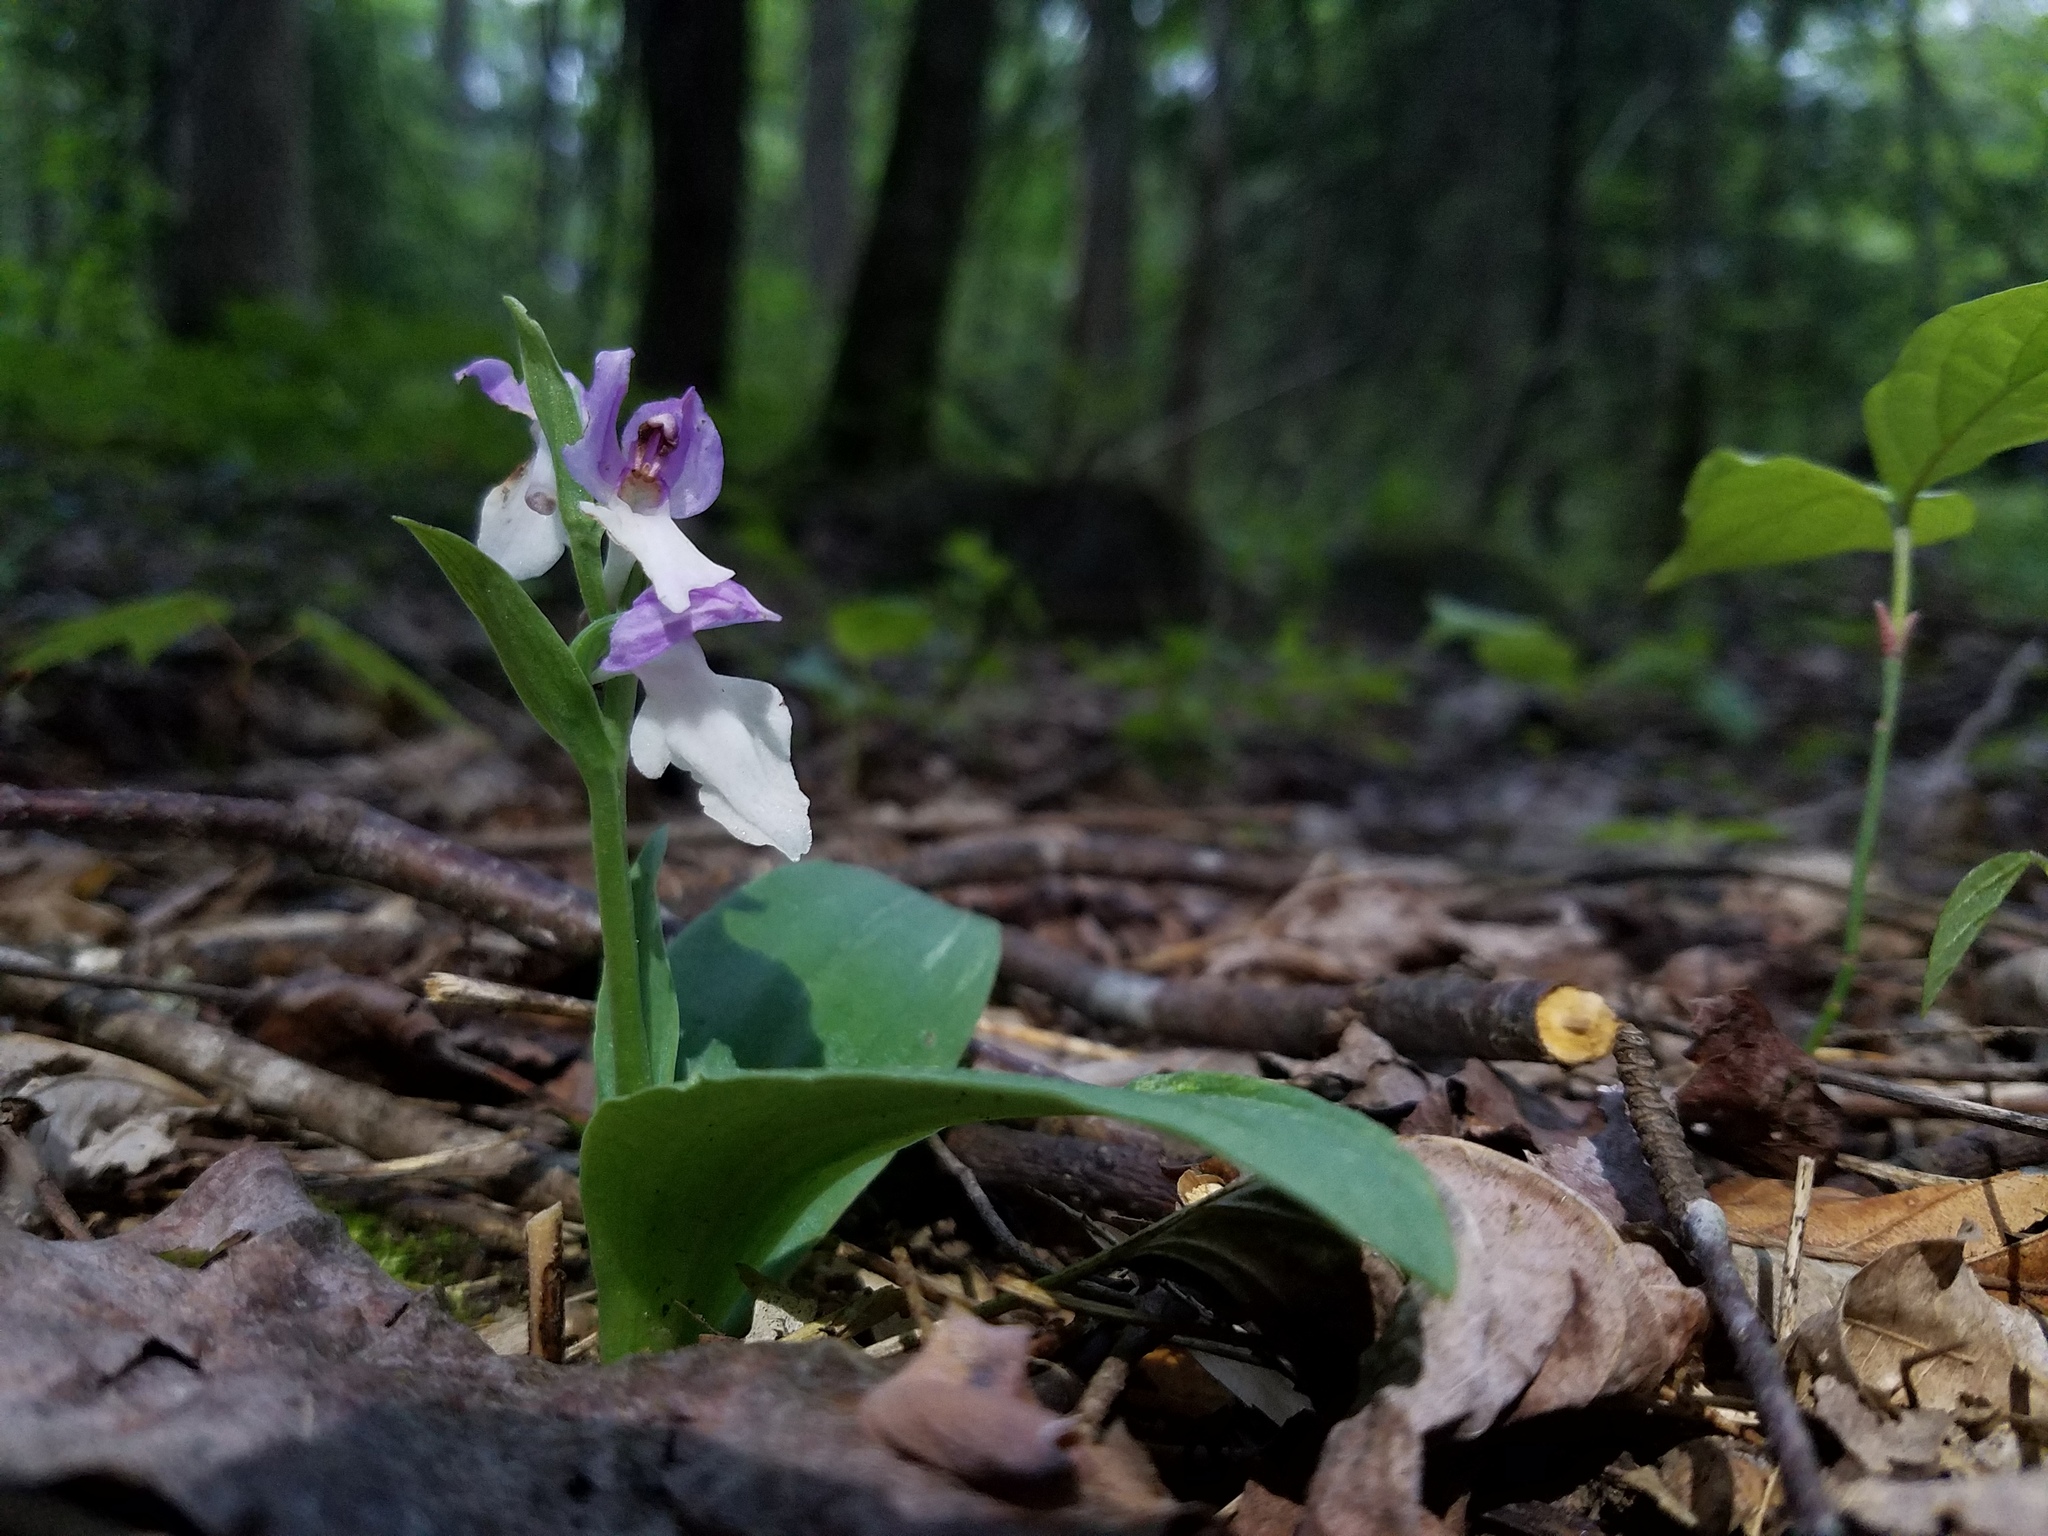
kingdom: Plantae
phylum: Tracheophyta
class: Liliopsida
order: Asparagales
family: Orchidaceae
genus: Galearis
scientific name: Galearis spectabilis
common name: Purple-hooded orchis
